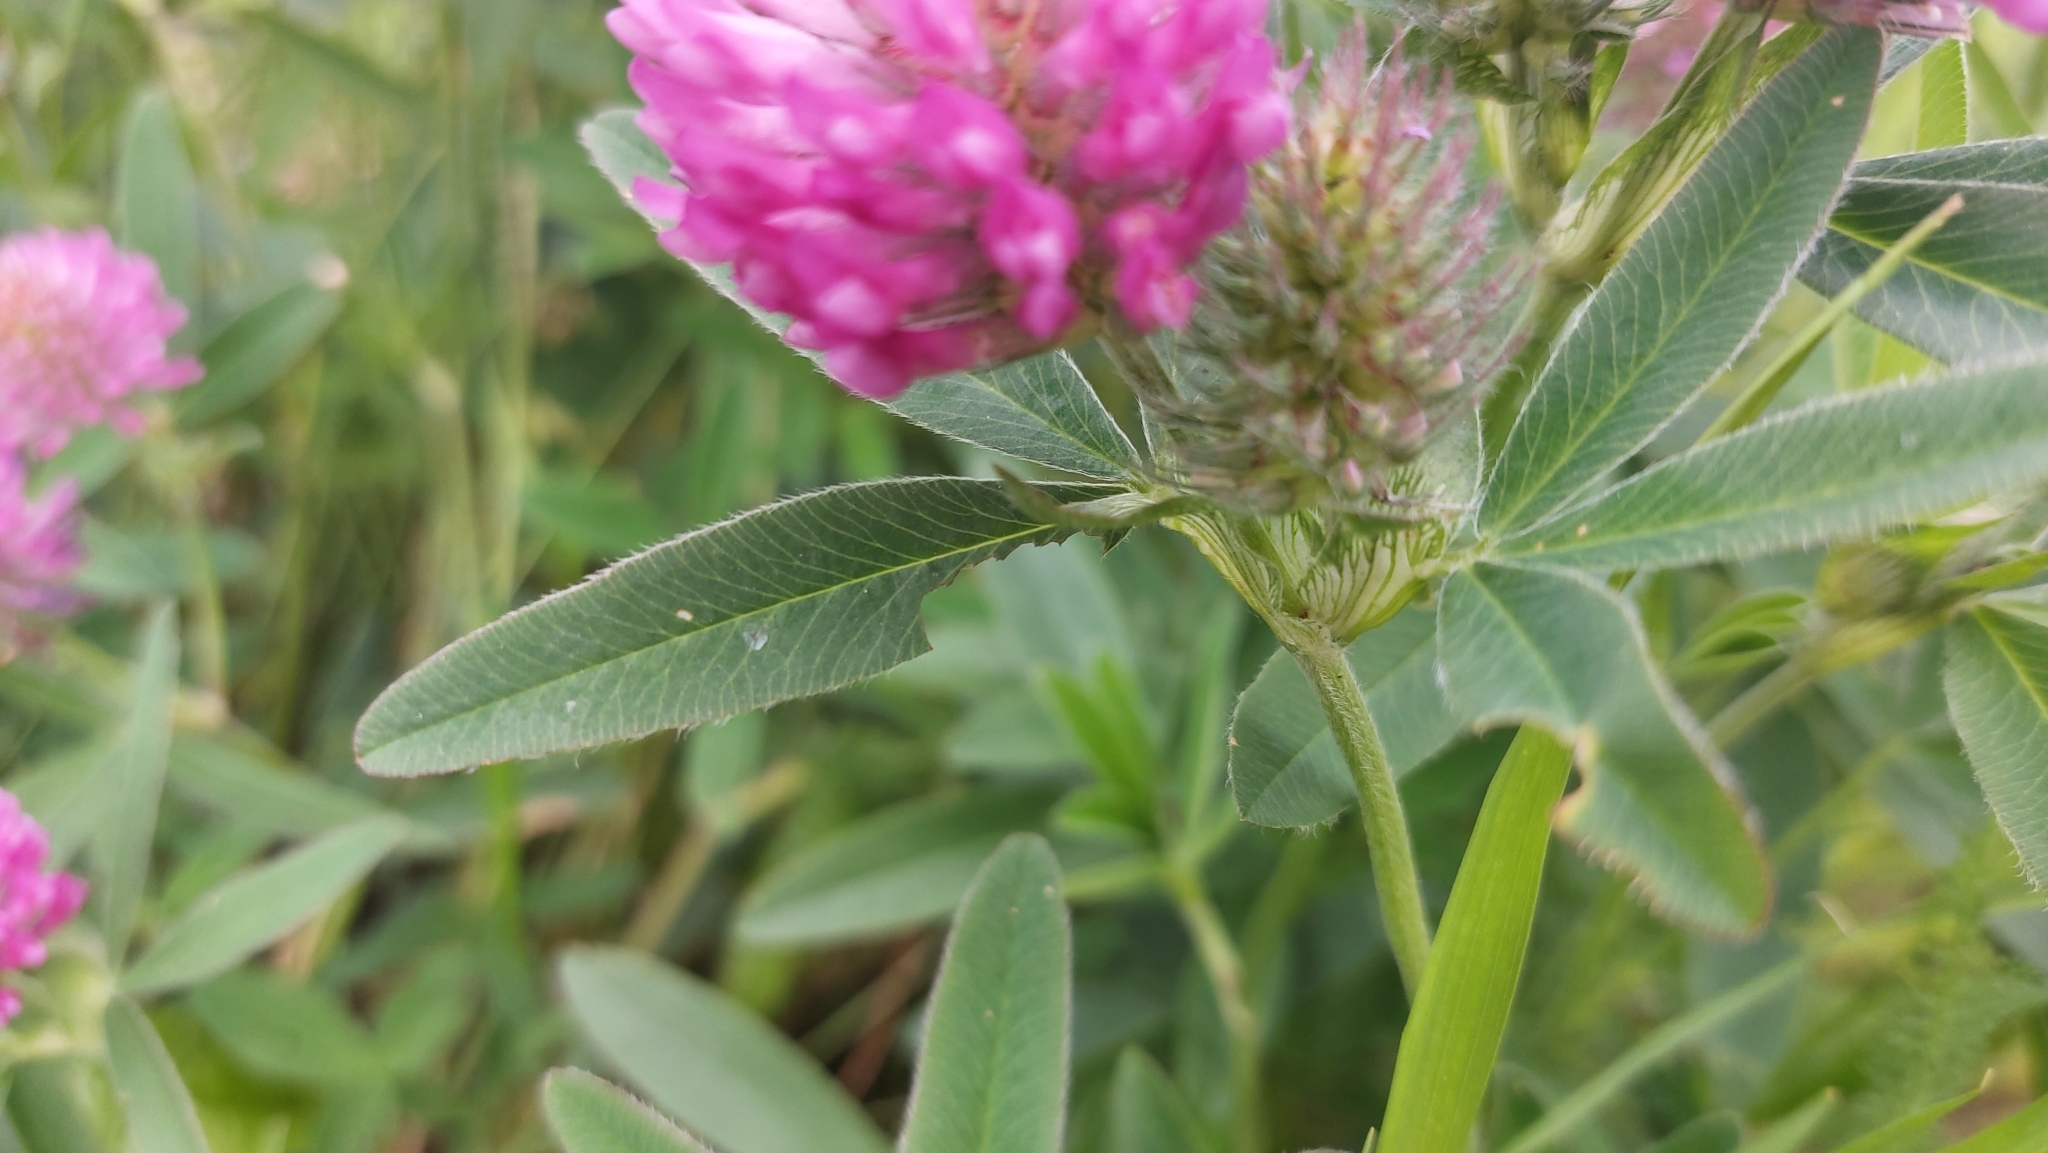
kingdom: Plantae
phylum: Tracheophyta
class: Magnoliopsida
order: Fabales
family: Fabaceae
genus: Trifolium
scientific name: Trifolium medium
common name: Zigzag clover
